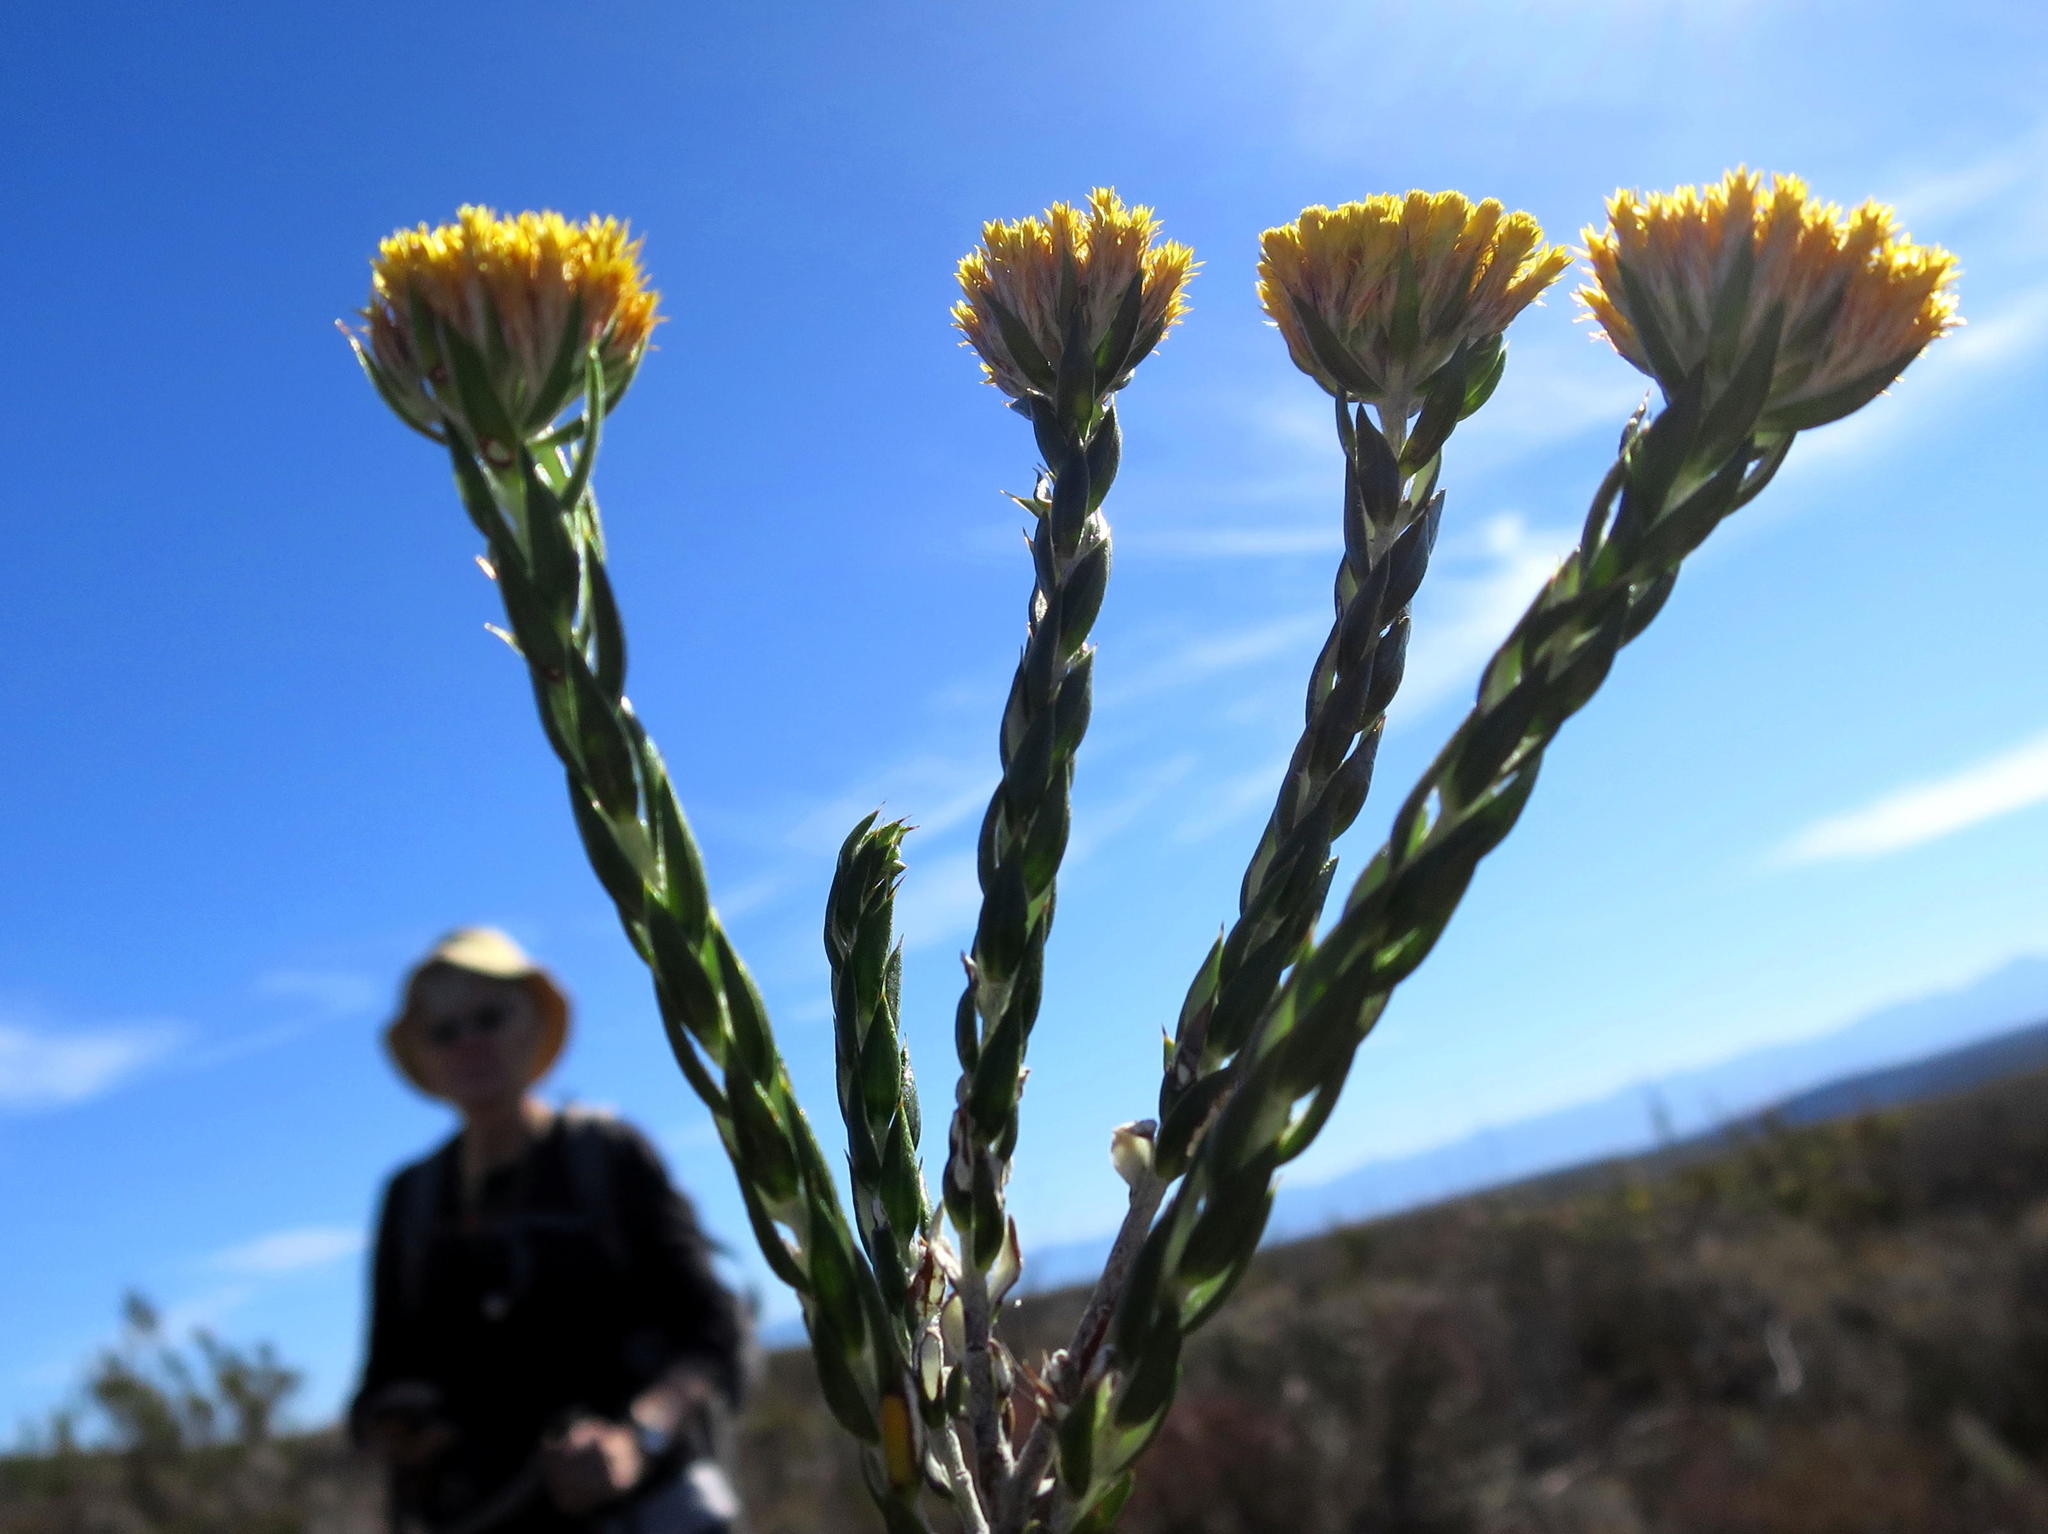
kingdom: Plantae
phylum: Tracheophyta
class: Magnoliopsida
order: Asterales
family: Asteraceae
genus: Metalasia
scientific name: Metalasia pulcherrima
